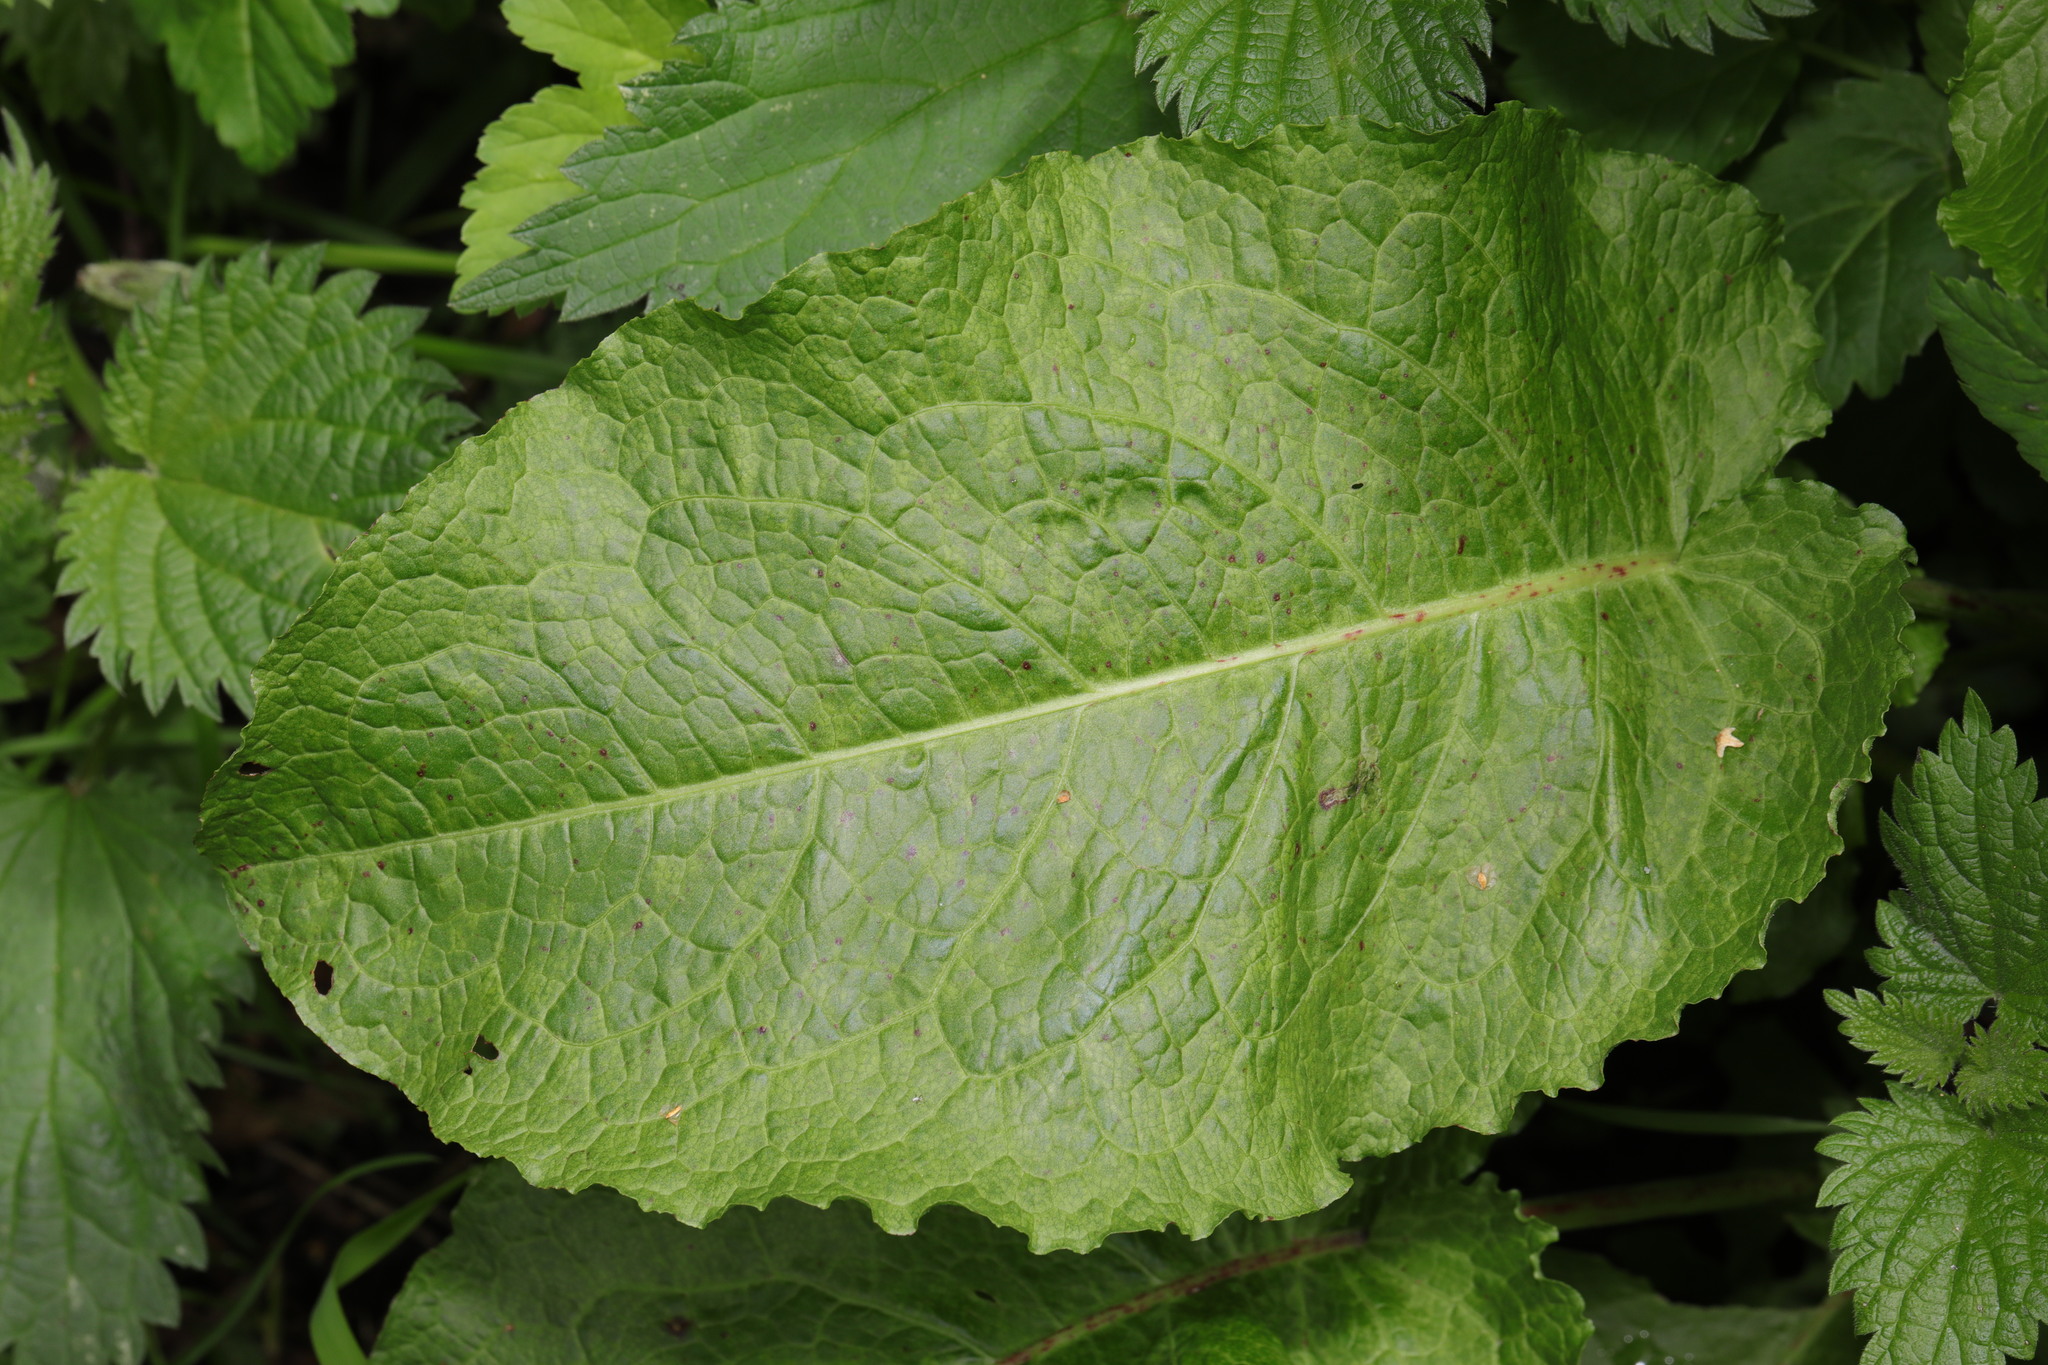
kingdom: Plantae
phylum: Tracheophyta
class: Magnoliopsida
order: Caryophyllales
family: Polygonaceae
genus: Rumex
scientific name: Rumex obtusifolius
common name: Bitter dock
